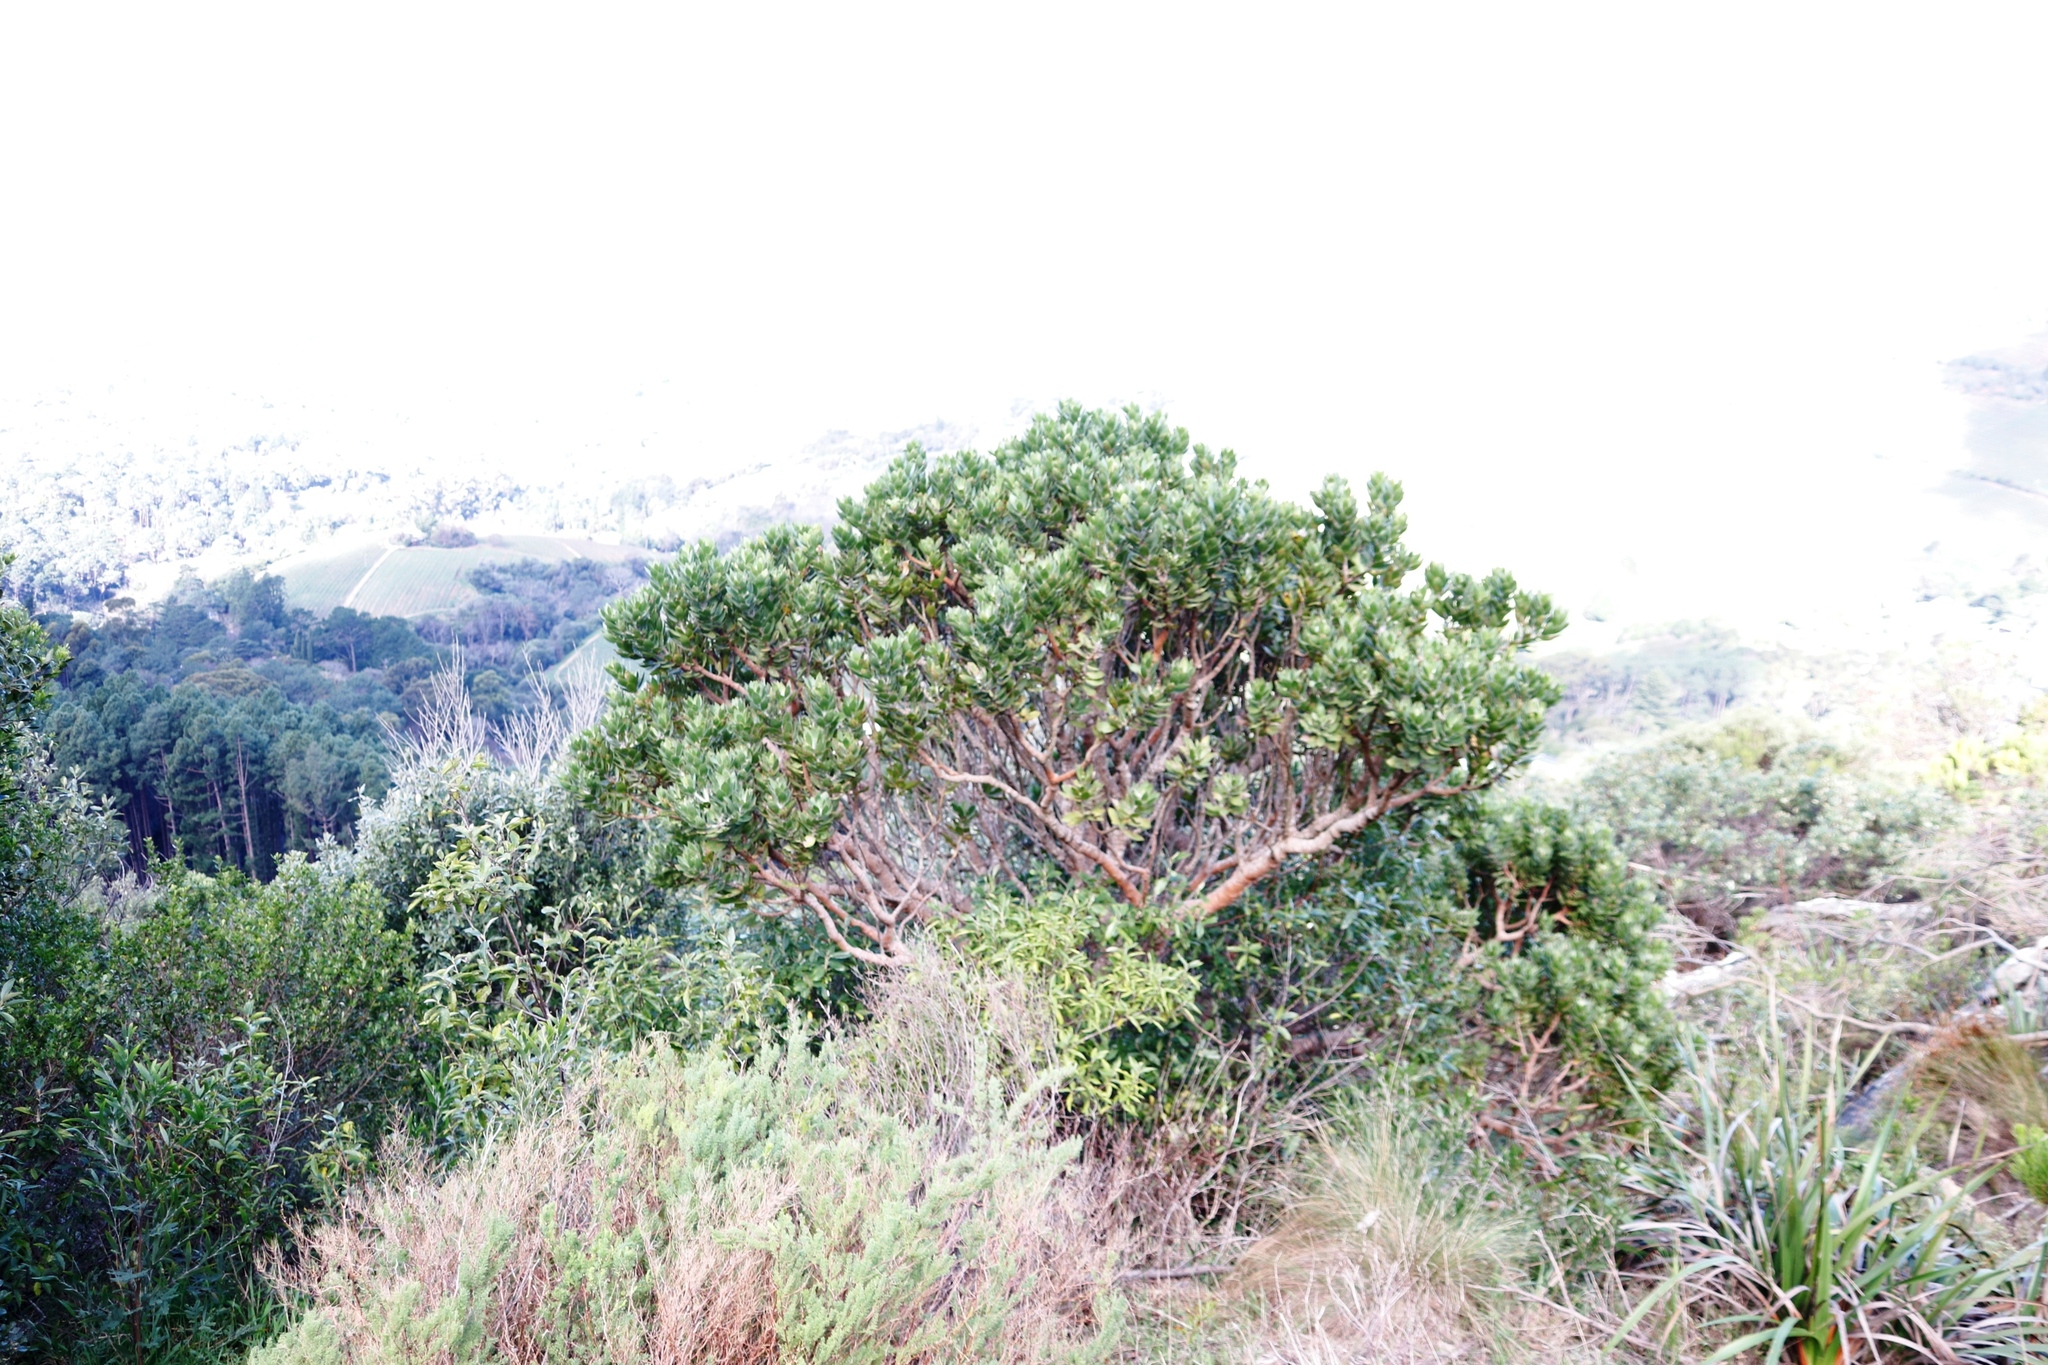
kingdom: Plantae
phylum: Tracheophyta
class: Magnoliopsida
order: Proteales
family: Proteaceae
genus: Leucospermum
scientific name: Leucospermum conocarpodendron
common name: Tree pincushion
